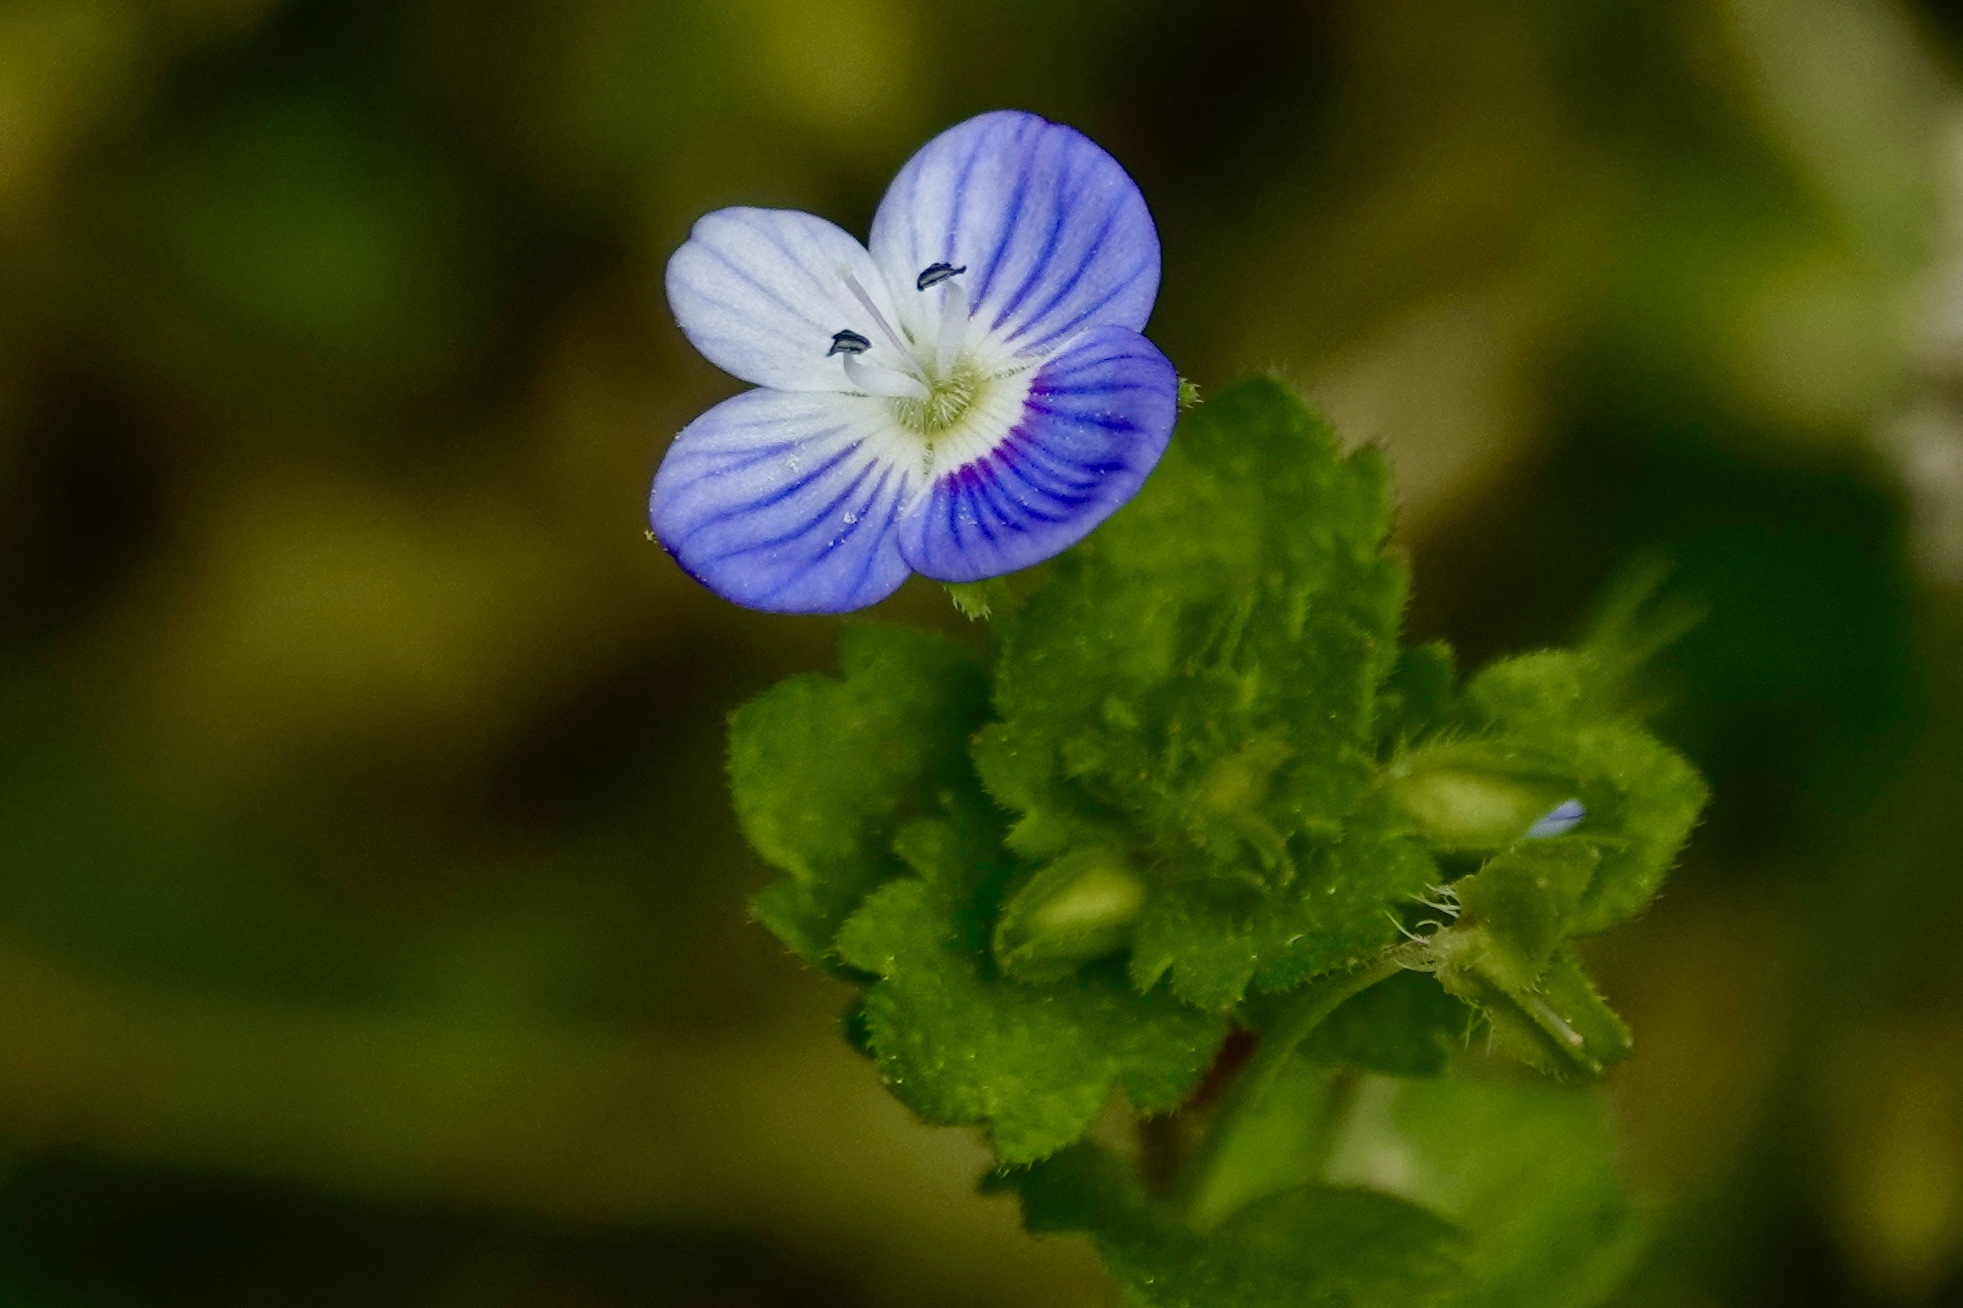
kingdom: Plantae
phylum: Tracheophyta
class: Magnoliopsida
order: Lamiales
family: Plantaginaceae
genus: Veronica
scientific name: Veronica persica
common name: Common field-speedwell
